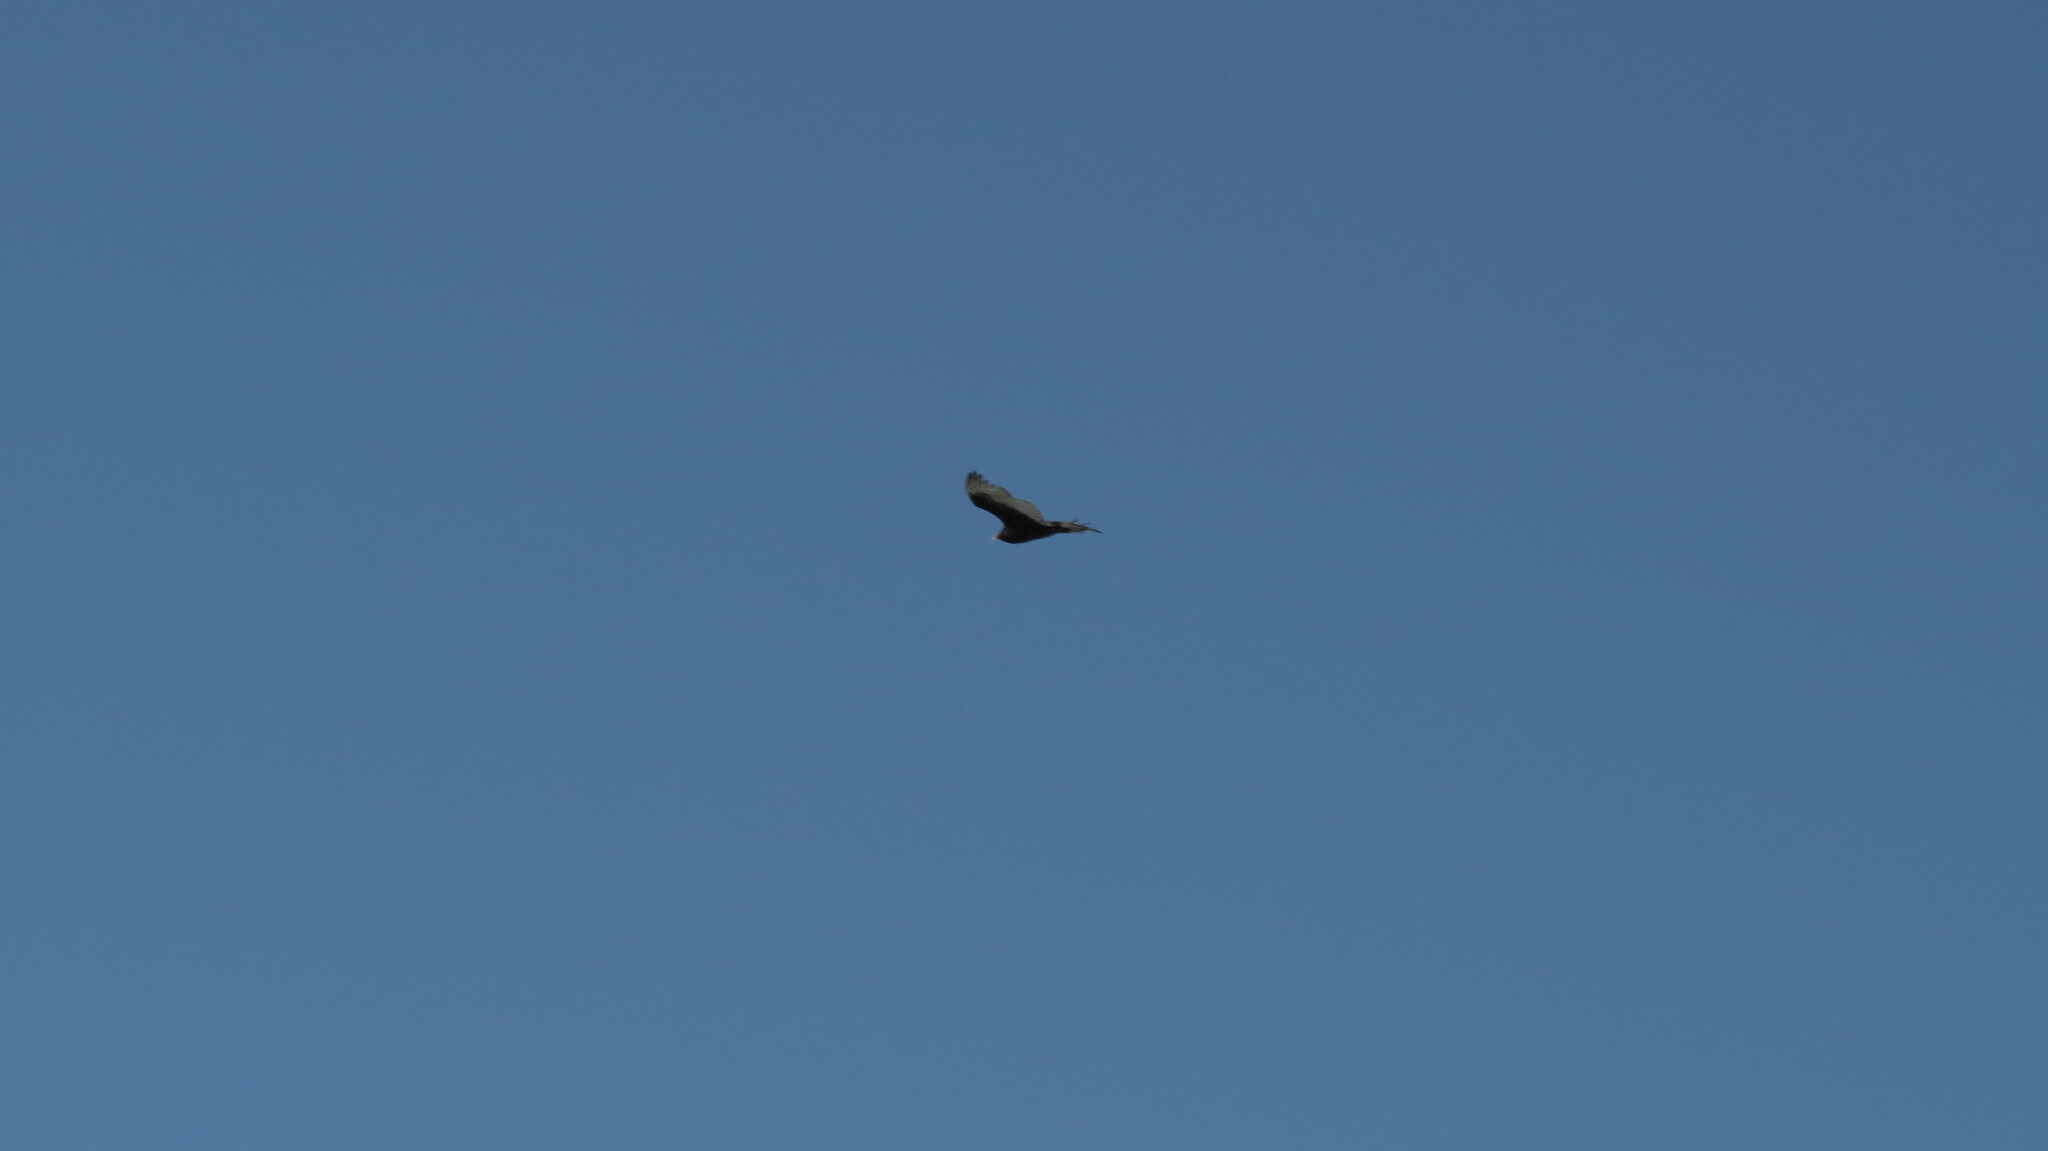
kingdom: Animalia
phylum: Chordata
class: Aves
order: Accipitriformes
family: Cathartidae
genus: Cathartes
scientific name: Cathartes aura
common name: Turkey vulture
